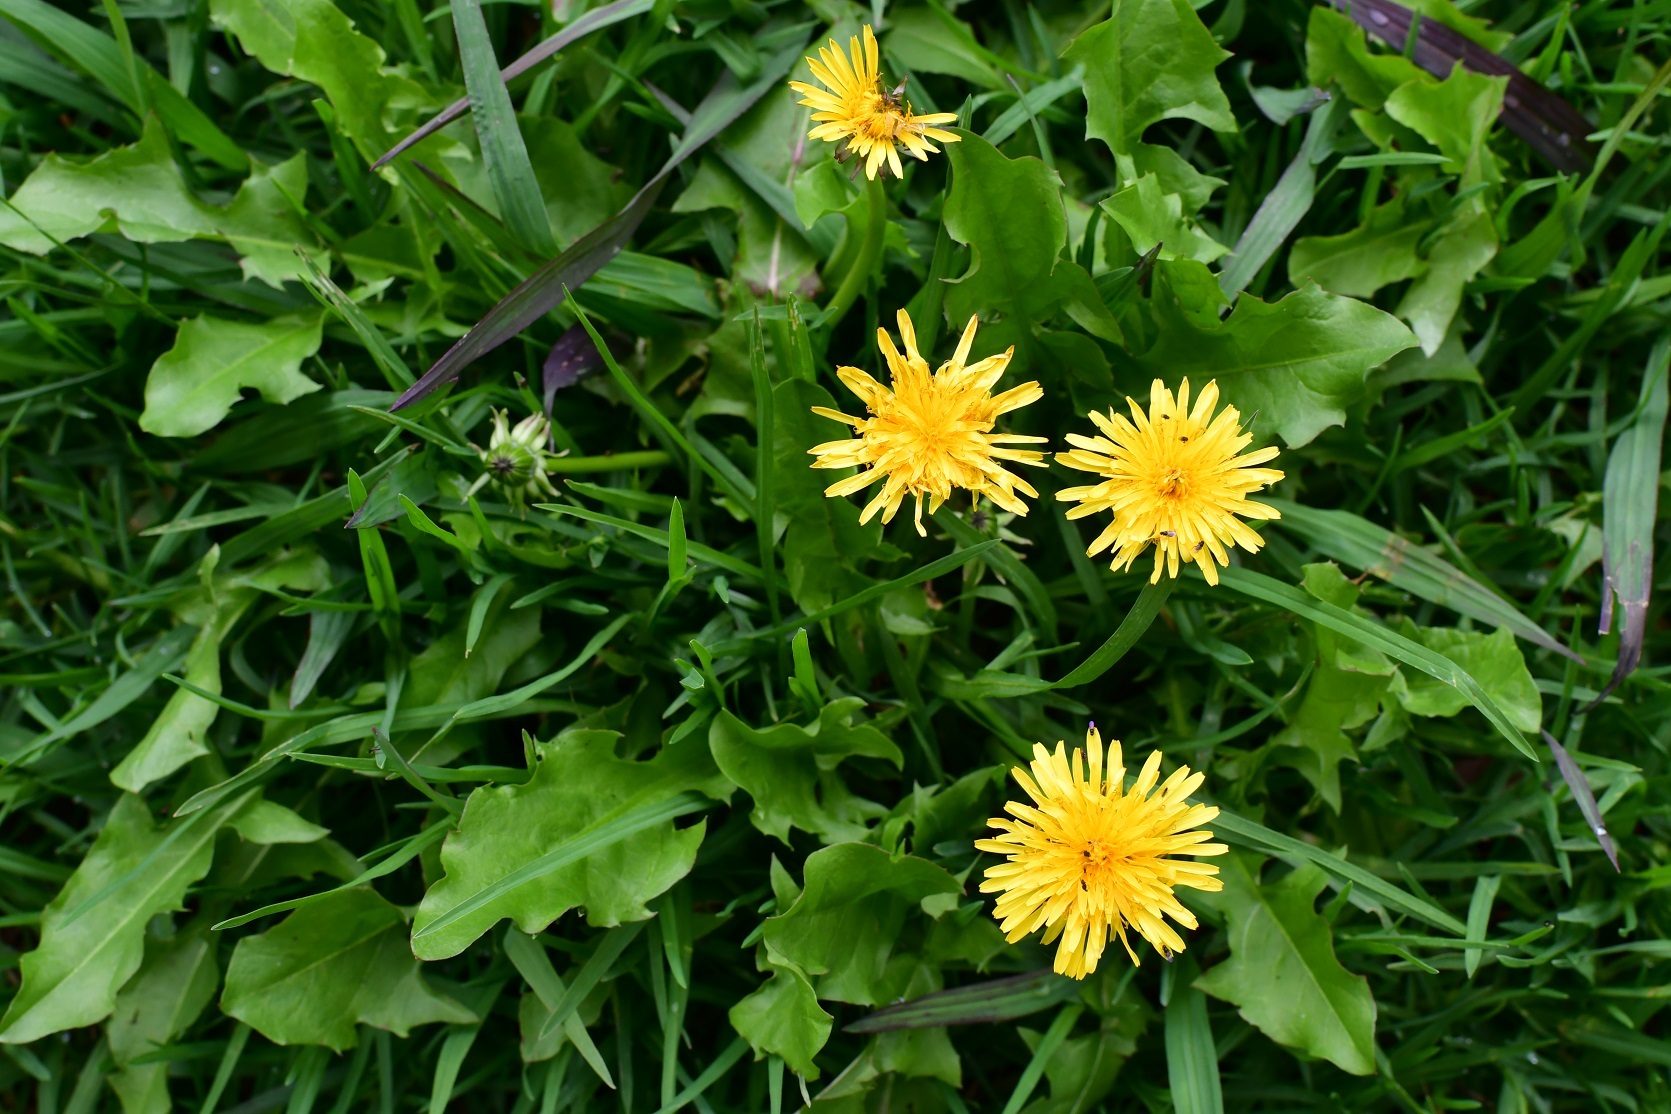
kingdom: Plantae
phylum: Tracheophyta
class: Magnoliopsida
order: Asterales
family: Asteraceae
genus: Taraxacum
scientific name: Taraxacum officinale
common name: Common dandelion
